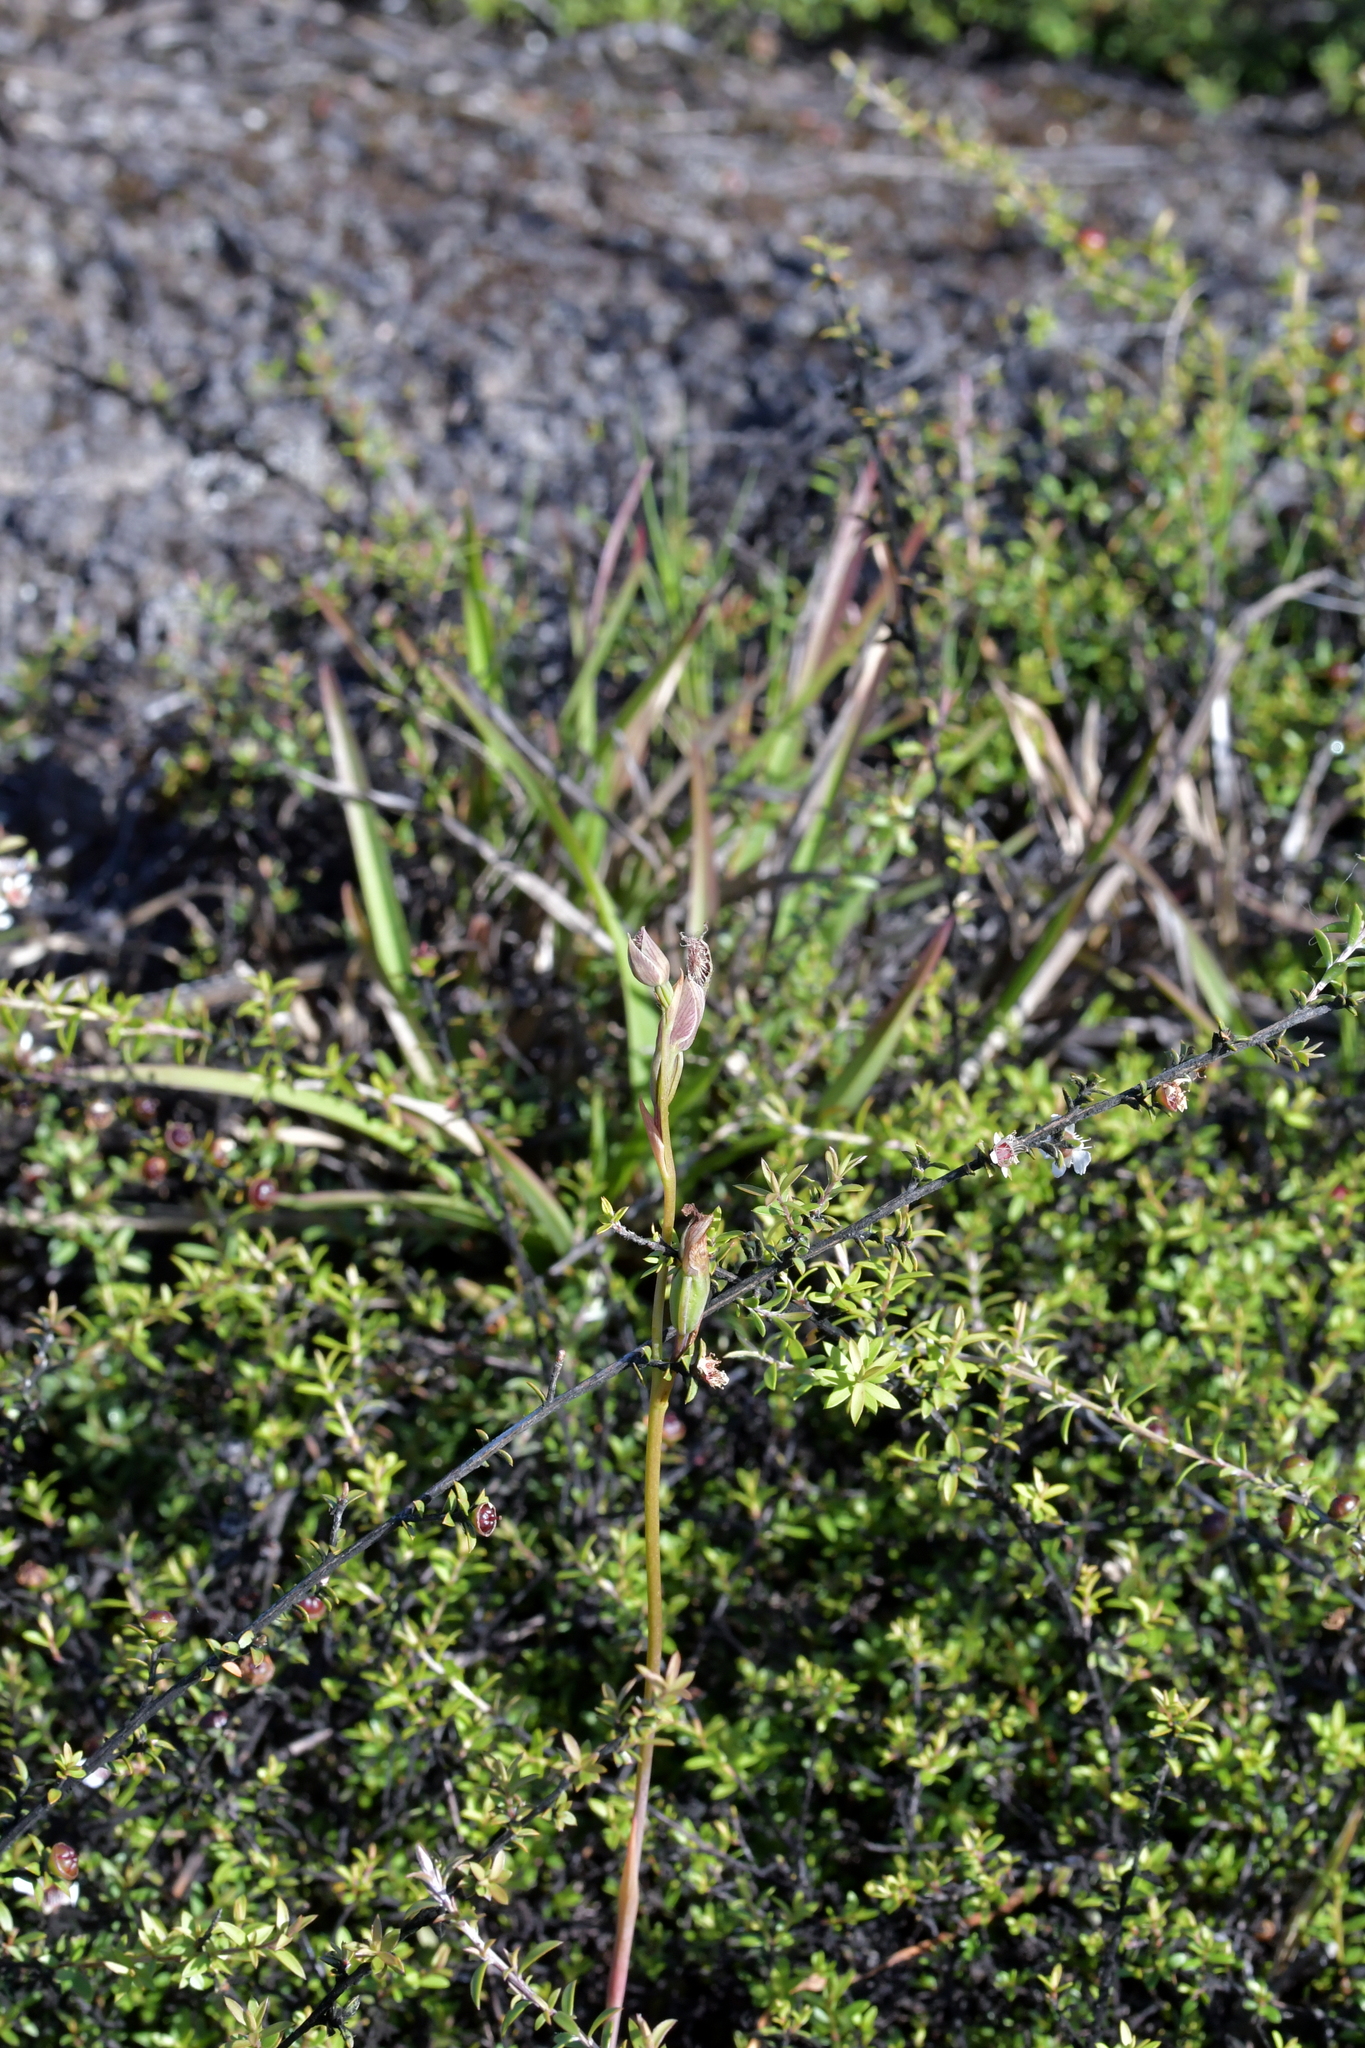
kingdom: Plantae
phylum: Tracheophyta
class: Liliopsida
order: Asparagales
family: Orchidaceae
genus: Calochilus
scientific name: Calochilus robertsonii
